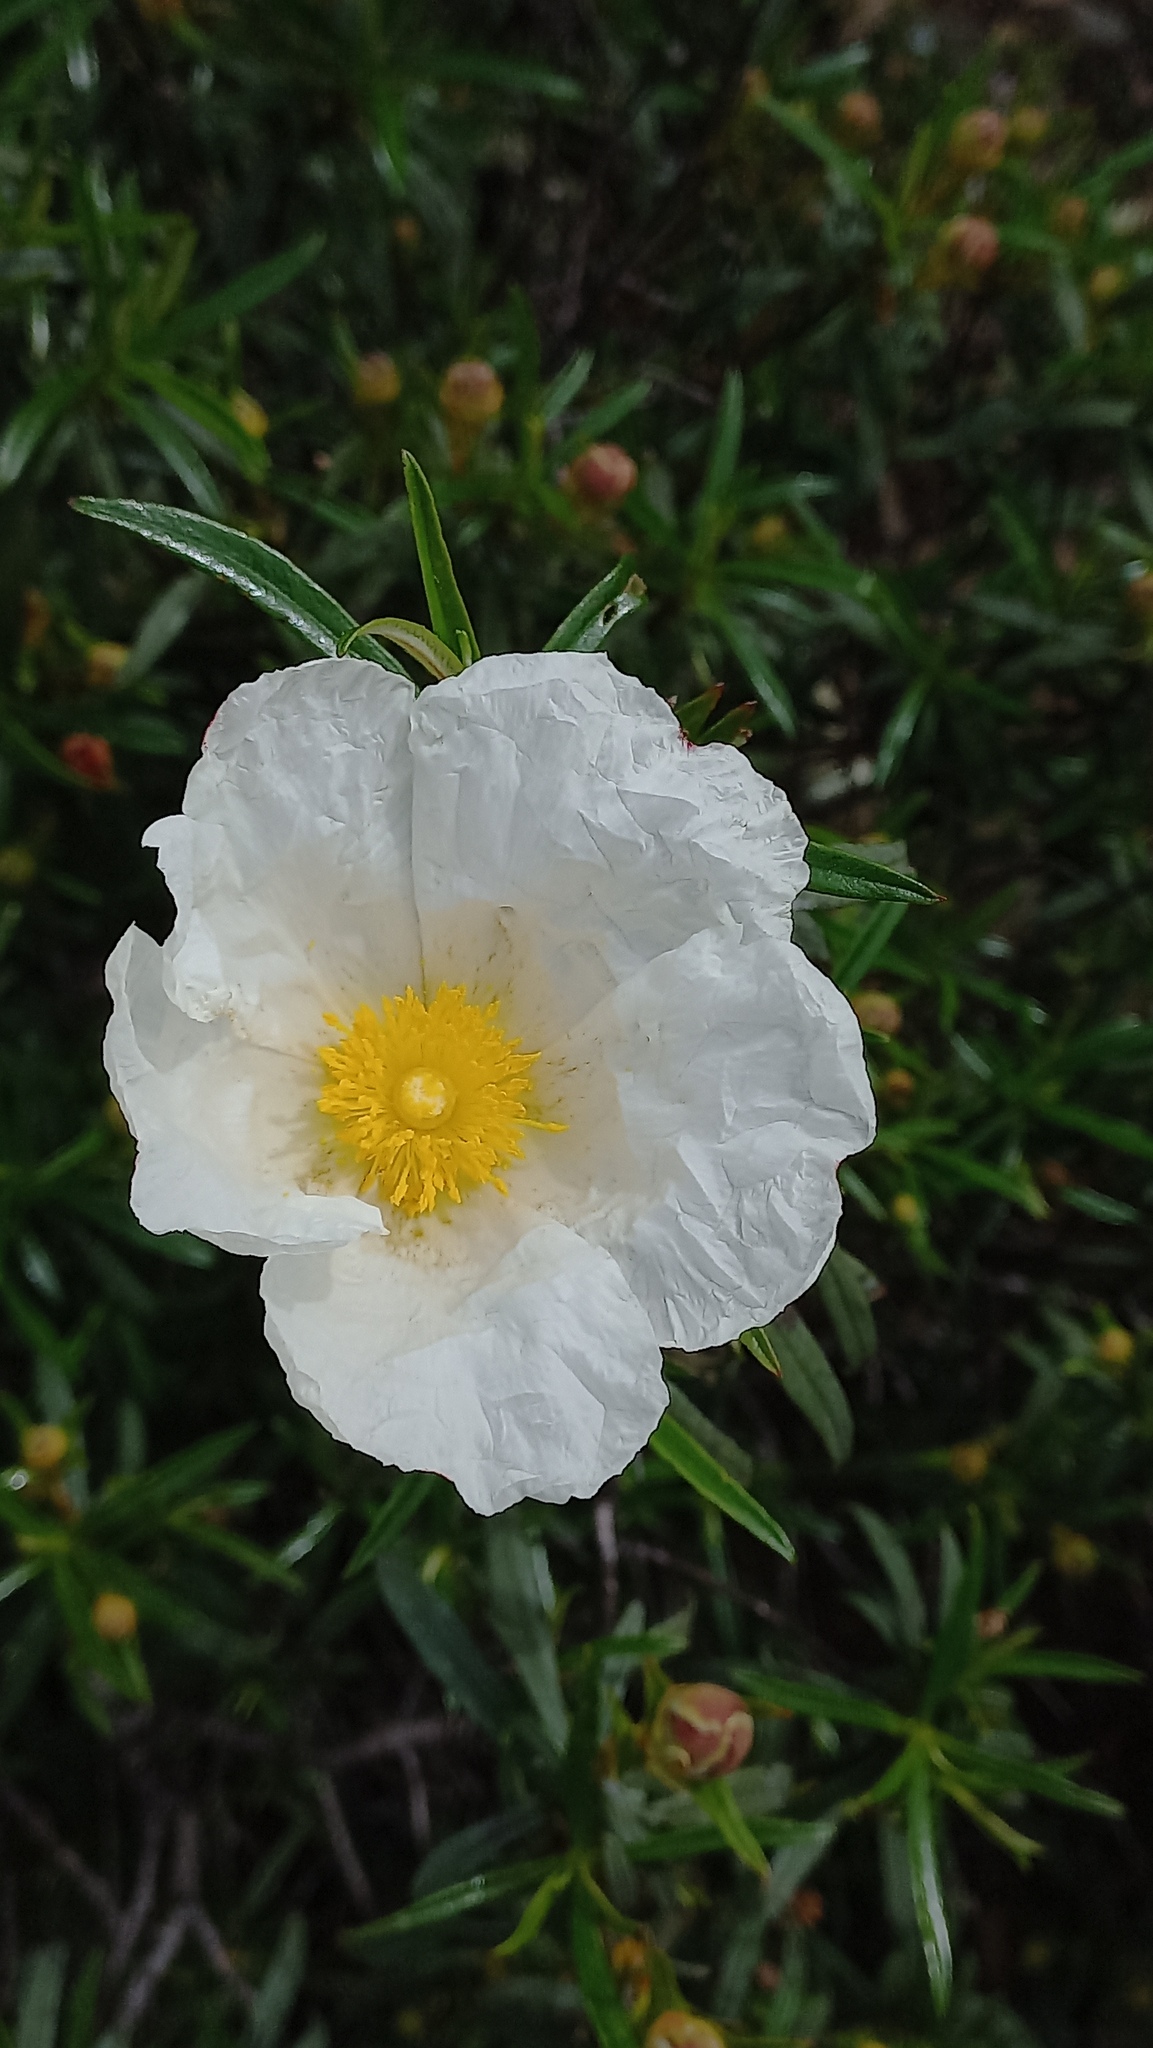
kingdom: Plantae
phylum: Tracheophyta
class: Magnoliopsida
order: Malvales
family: Cistaceae
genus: Cistus
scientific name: Cistus ladanifer
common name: Common gum cistus
